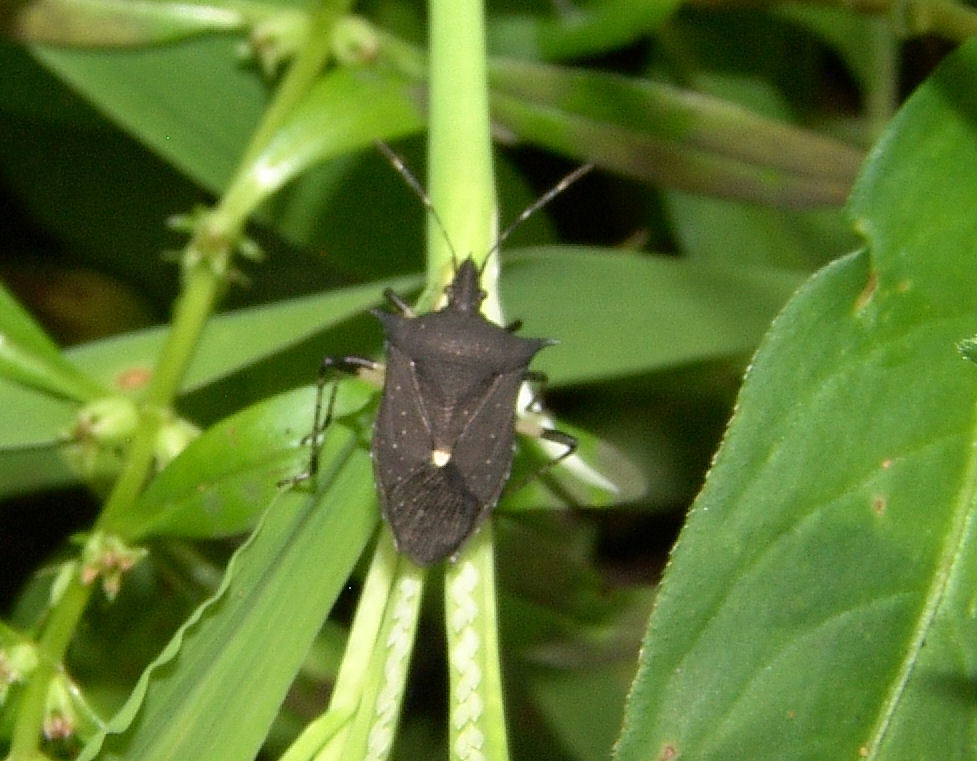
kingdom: Animalia
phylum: Arthropoda
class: Insecta
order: Hemiptera
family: Pentatomidae
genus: Proxys
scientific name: Proxys punctulatus
